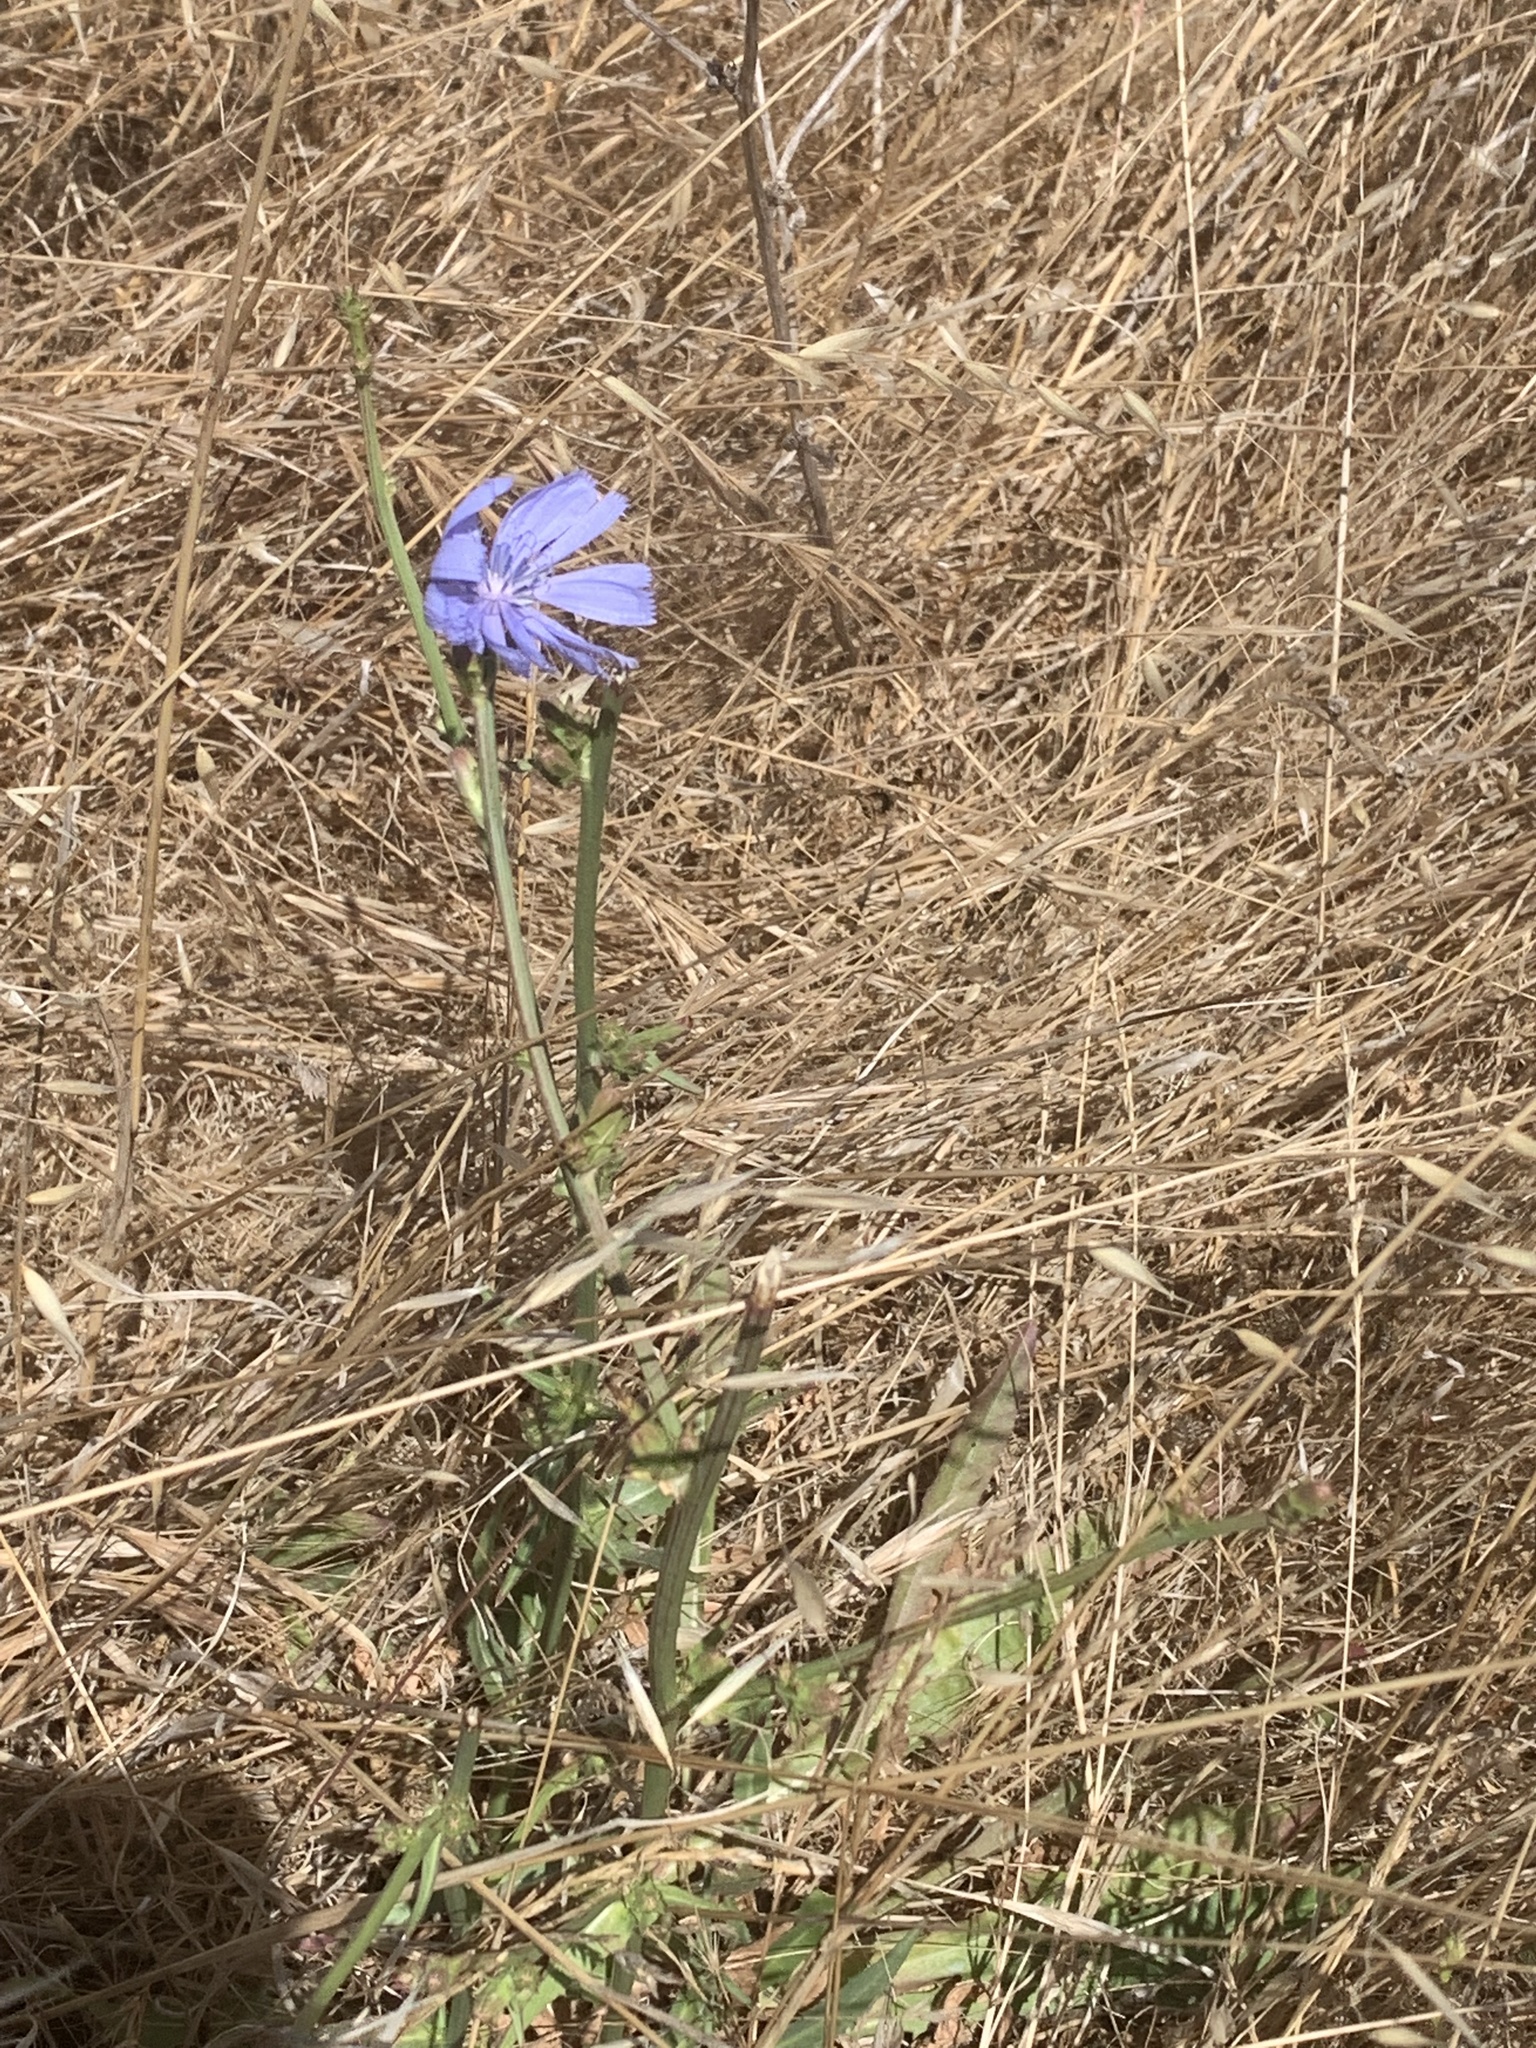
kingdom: Plantae
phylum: Tracheophyta
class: Magnoliopsida
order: Asterales
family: Asteraceae
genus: Cichorium
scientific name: Cichorium intybus
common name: Chicory
